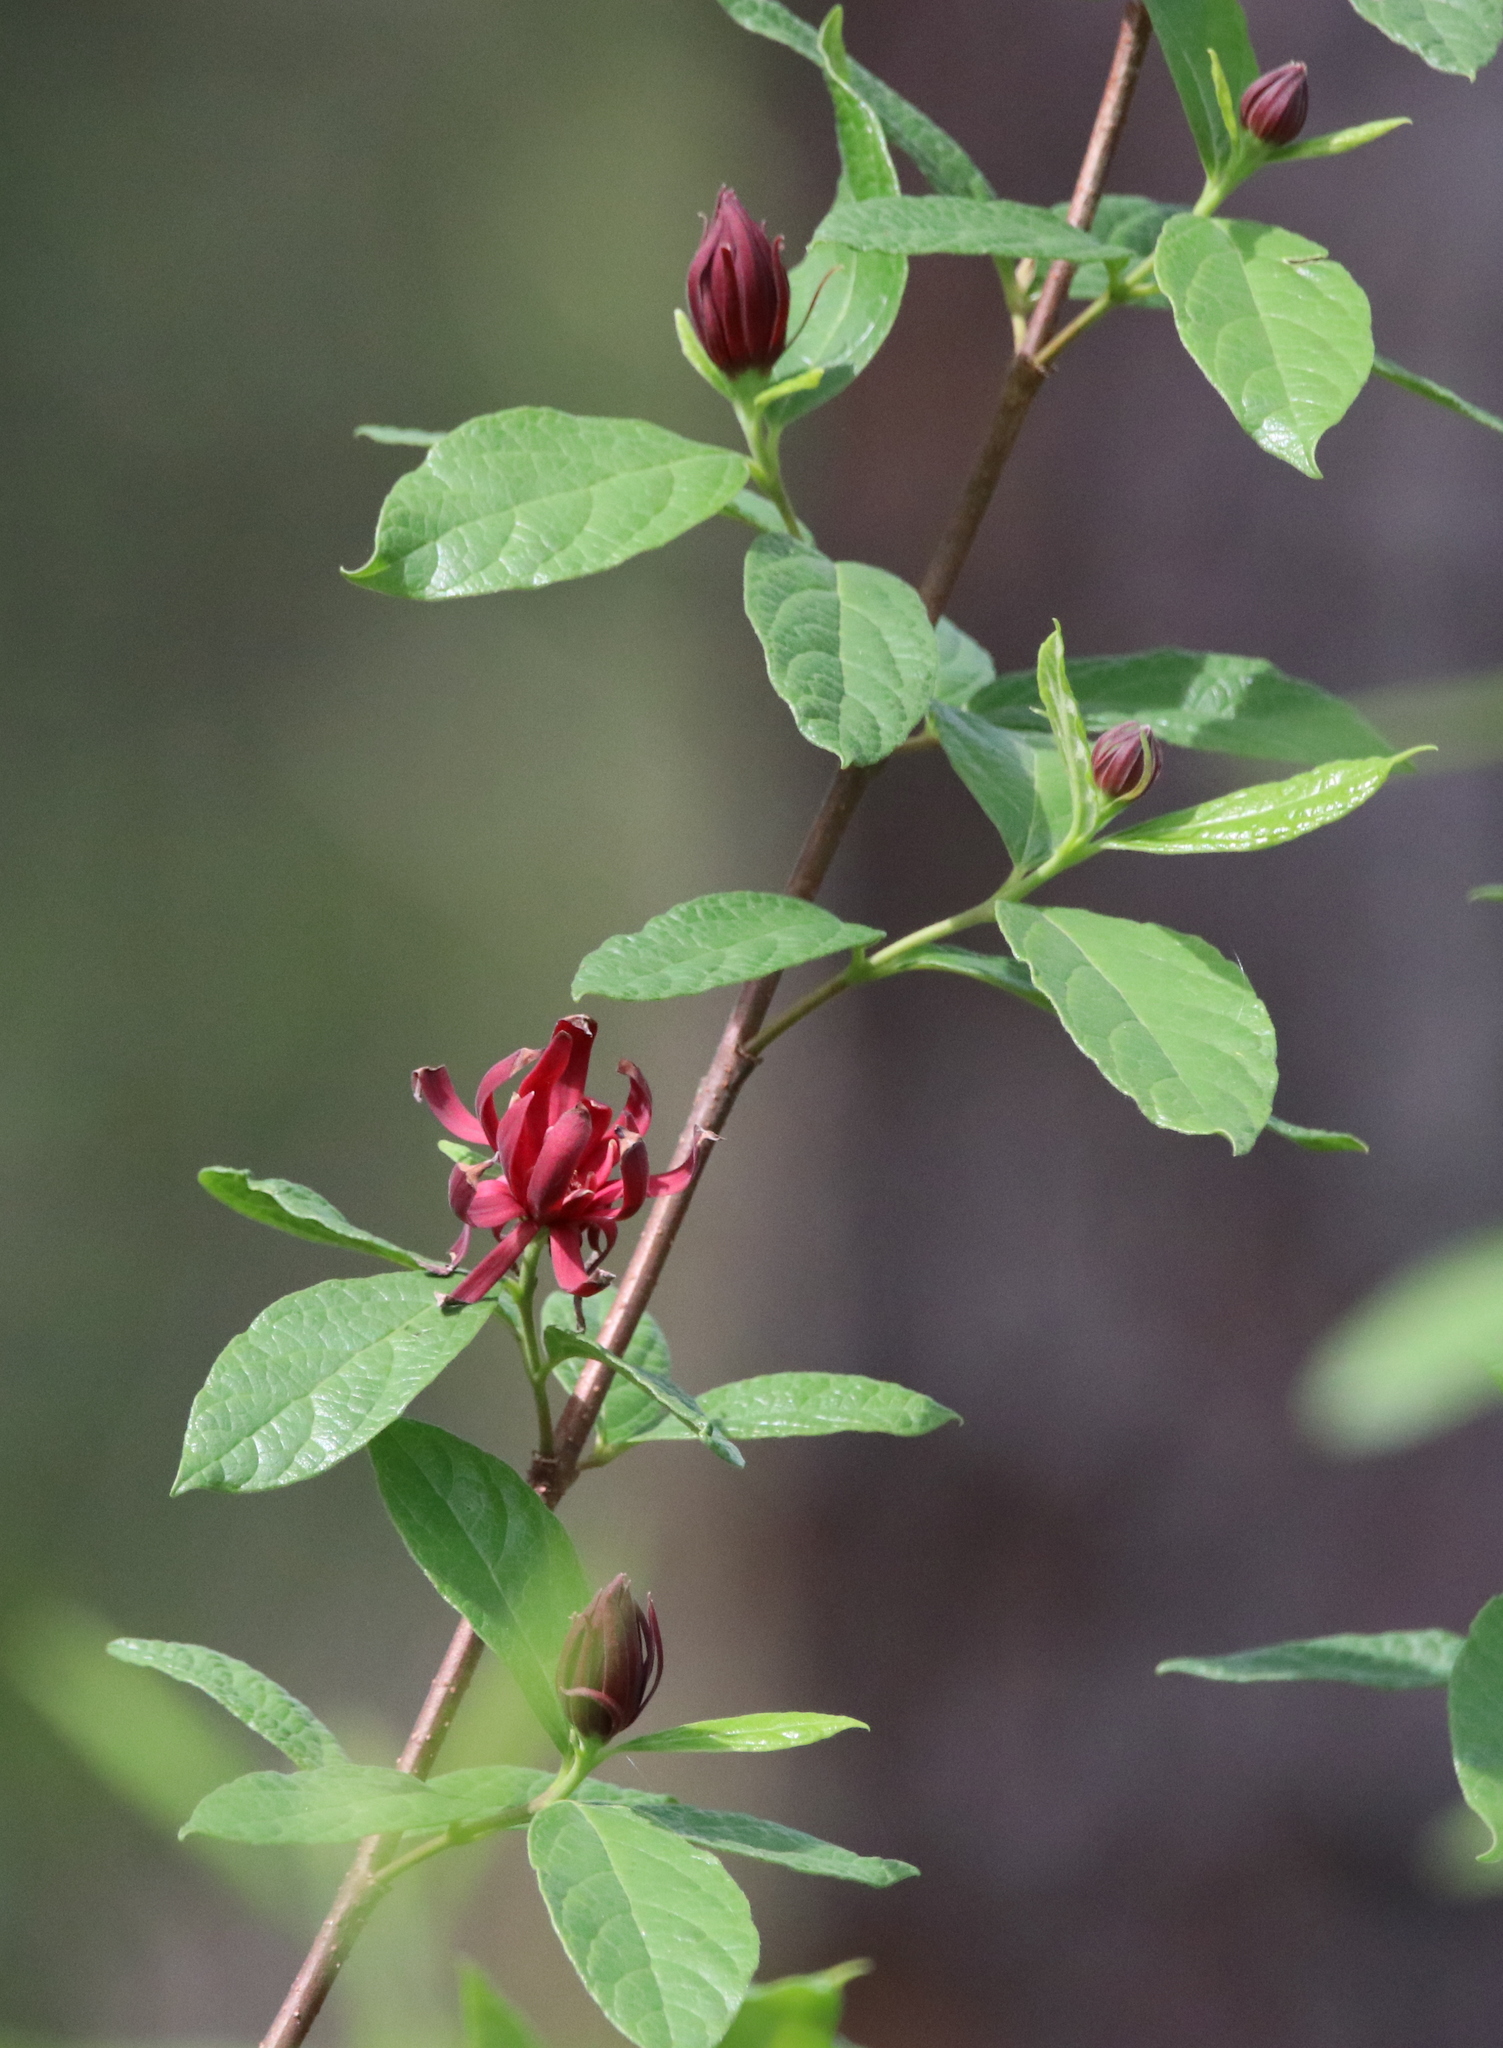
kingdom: Plantae
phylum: Tracheophyta
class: Magnoliopsida
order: Laurales
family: Calycanthaceae
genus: Calycanthus
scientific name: Calycanthus floridus
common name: Carolina-allspice
